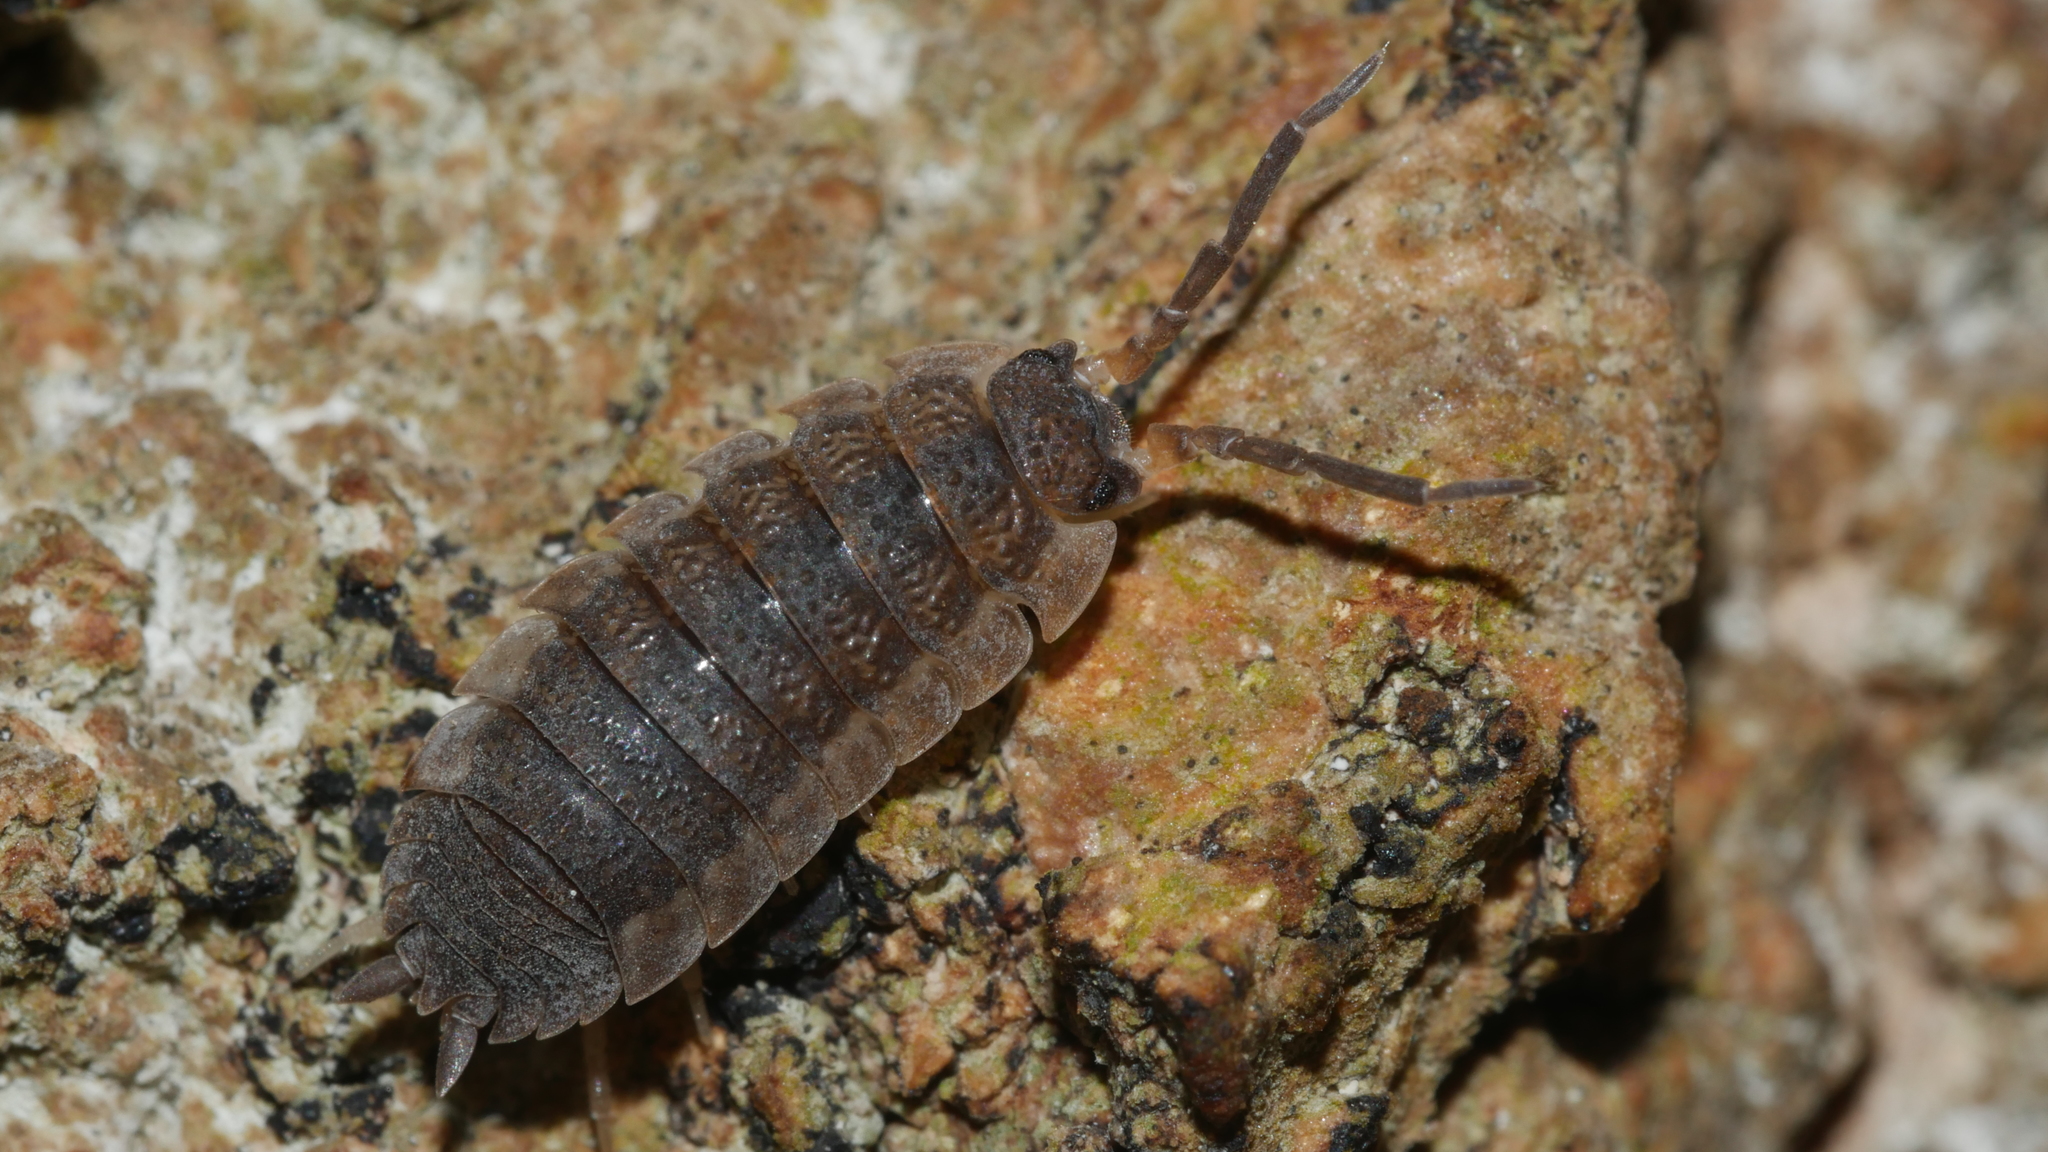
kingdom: Animalia
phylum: Arthropoda
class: Malacostraca
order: Isopoda
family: Porcellionidae
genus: Porcellio
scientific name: Porcellio scaber
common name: Common rough woodlouse
